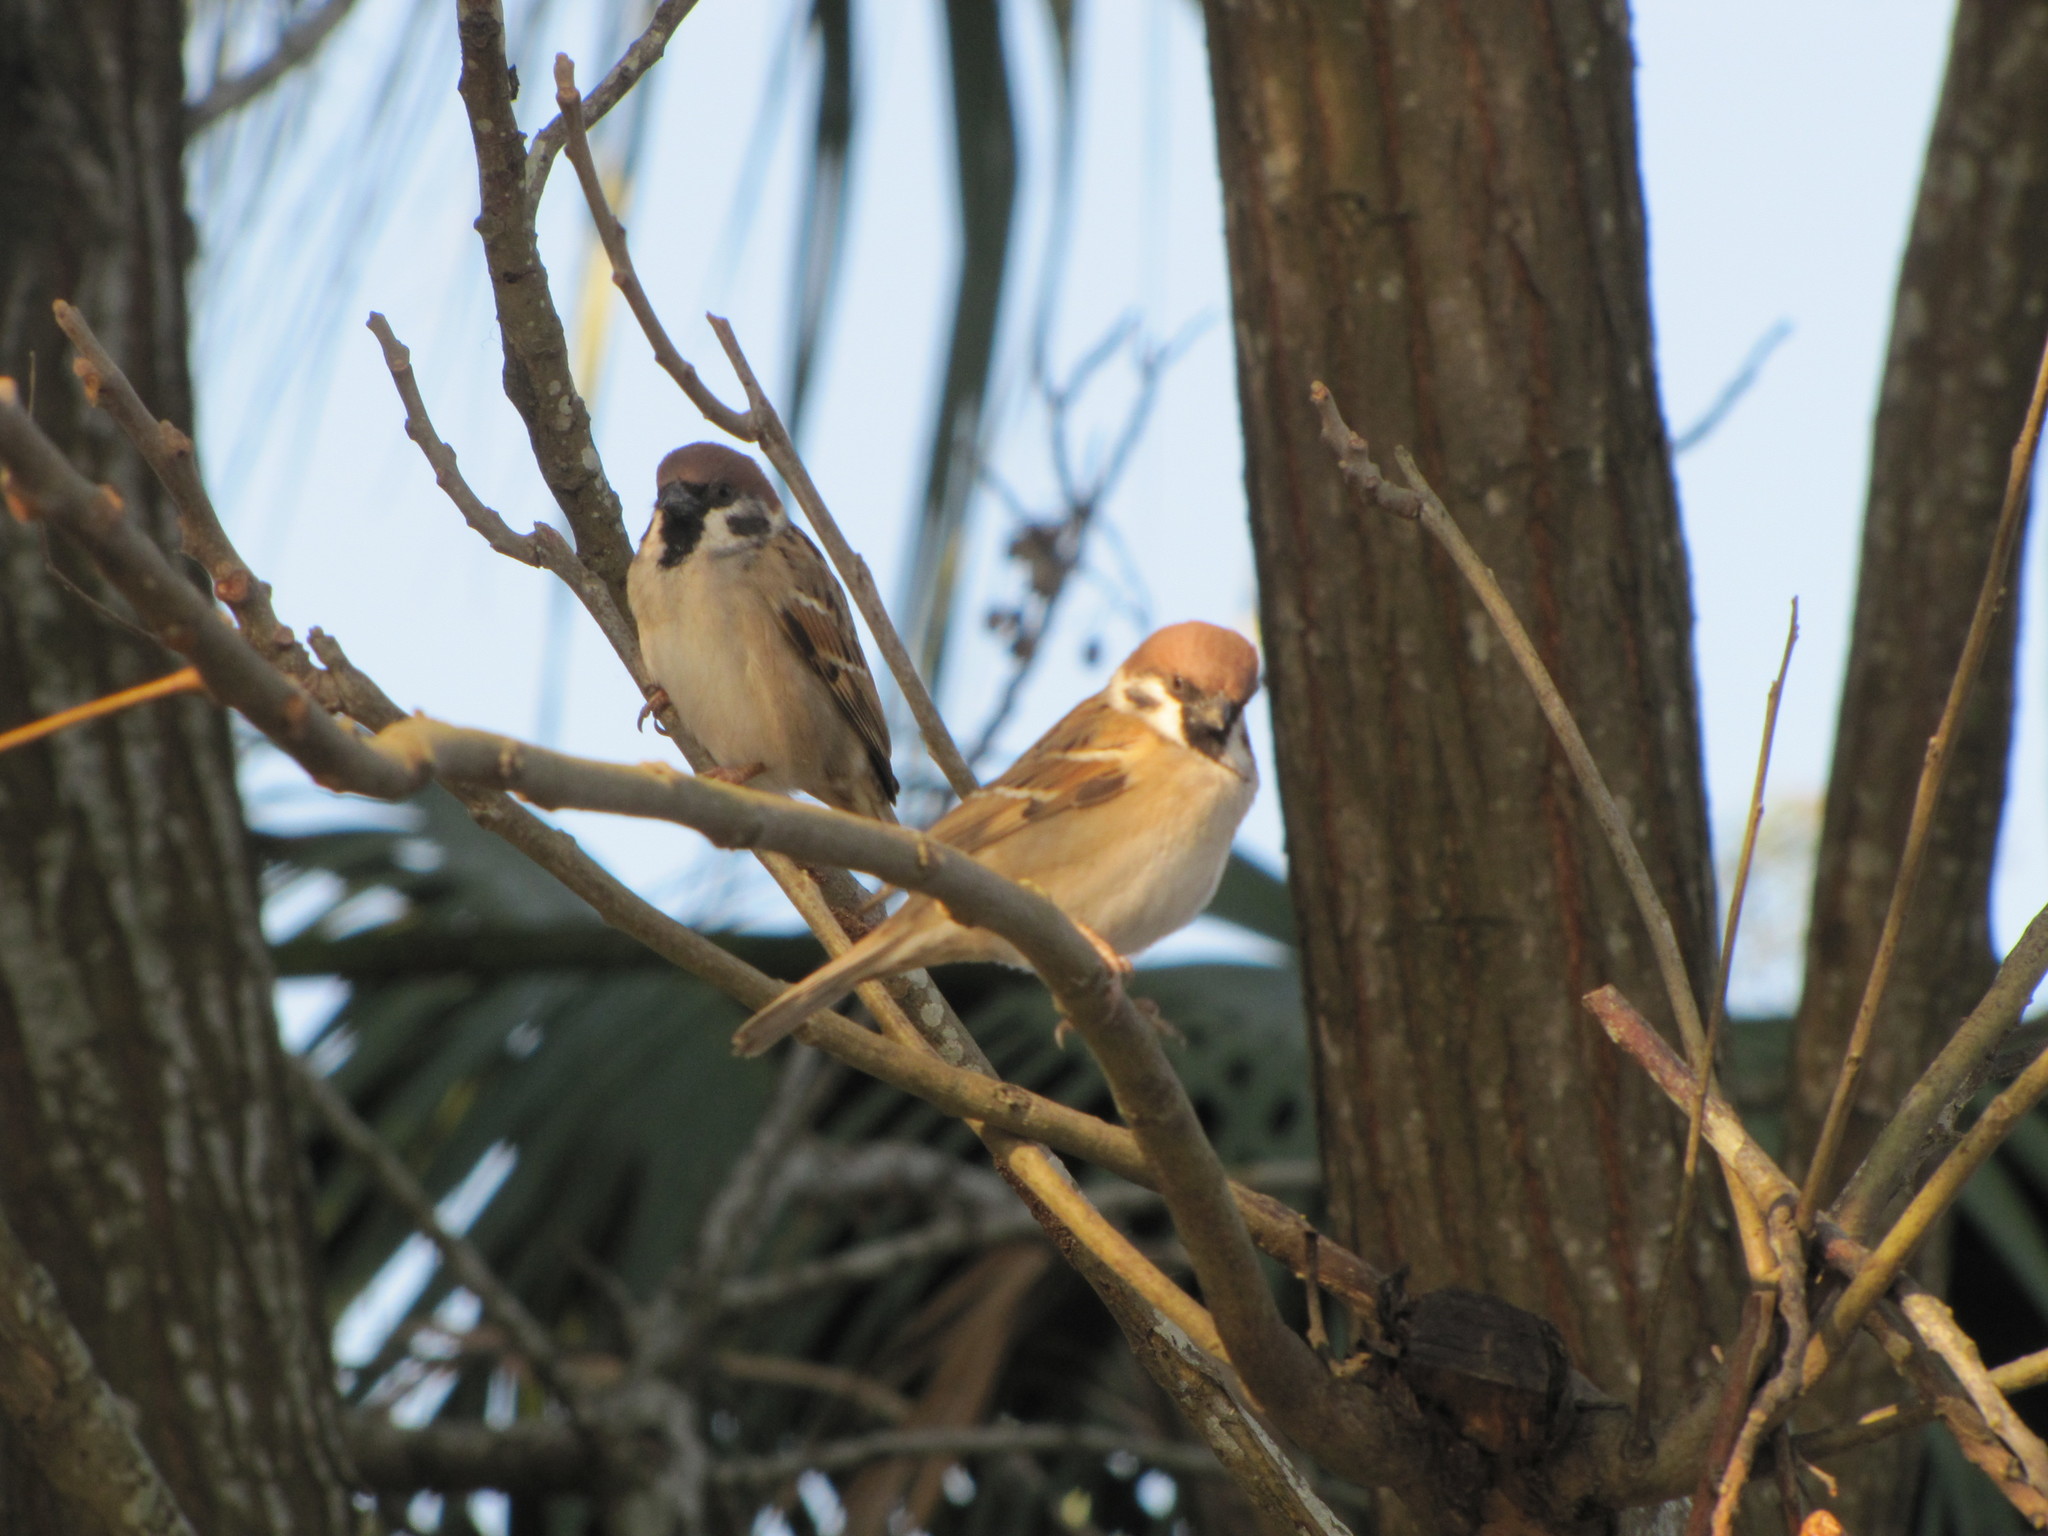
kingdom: Animalia
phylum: Chordata
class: Aves
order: Passeriformes
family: Passeridae
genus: Passer
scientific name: Passer montanus
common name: Eurasian tree sparrow
